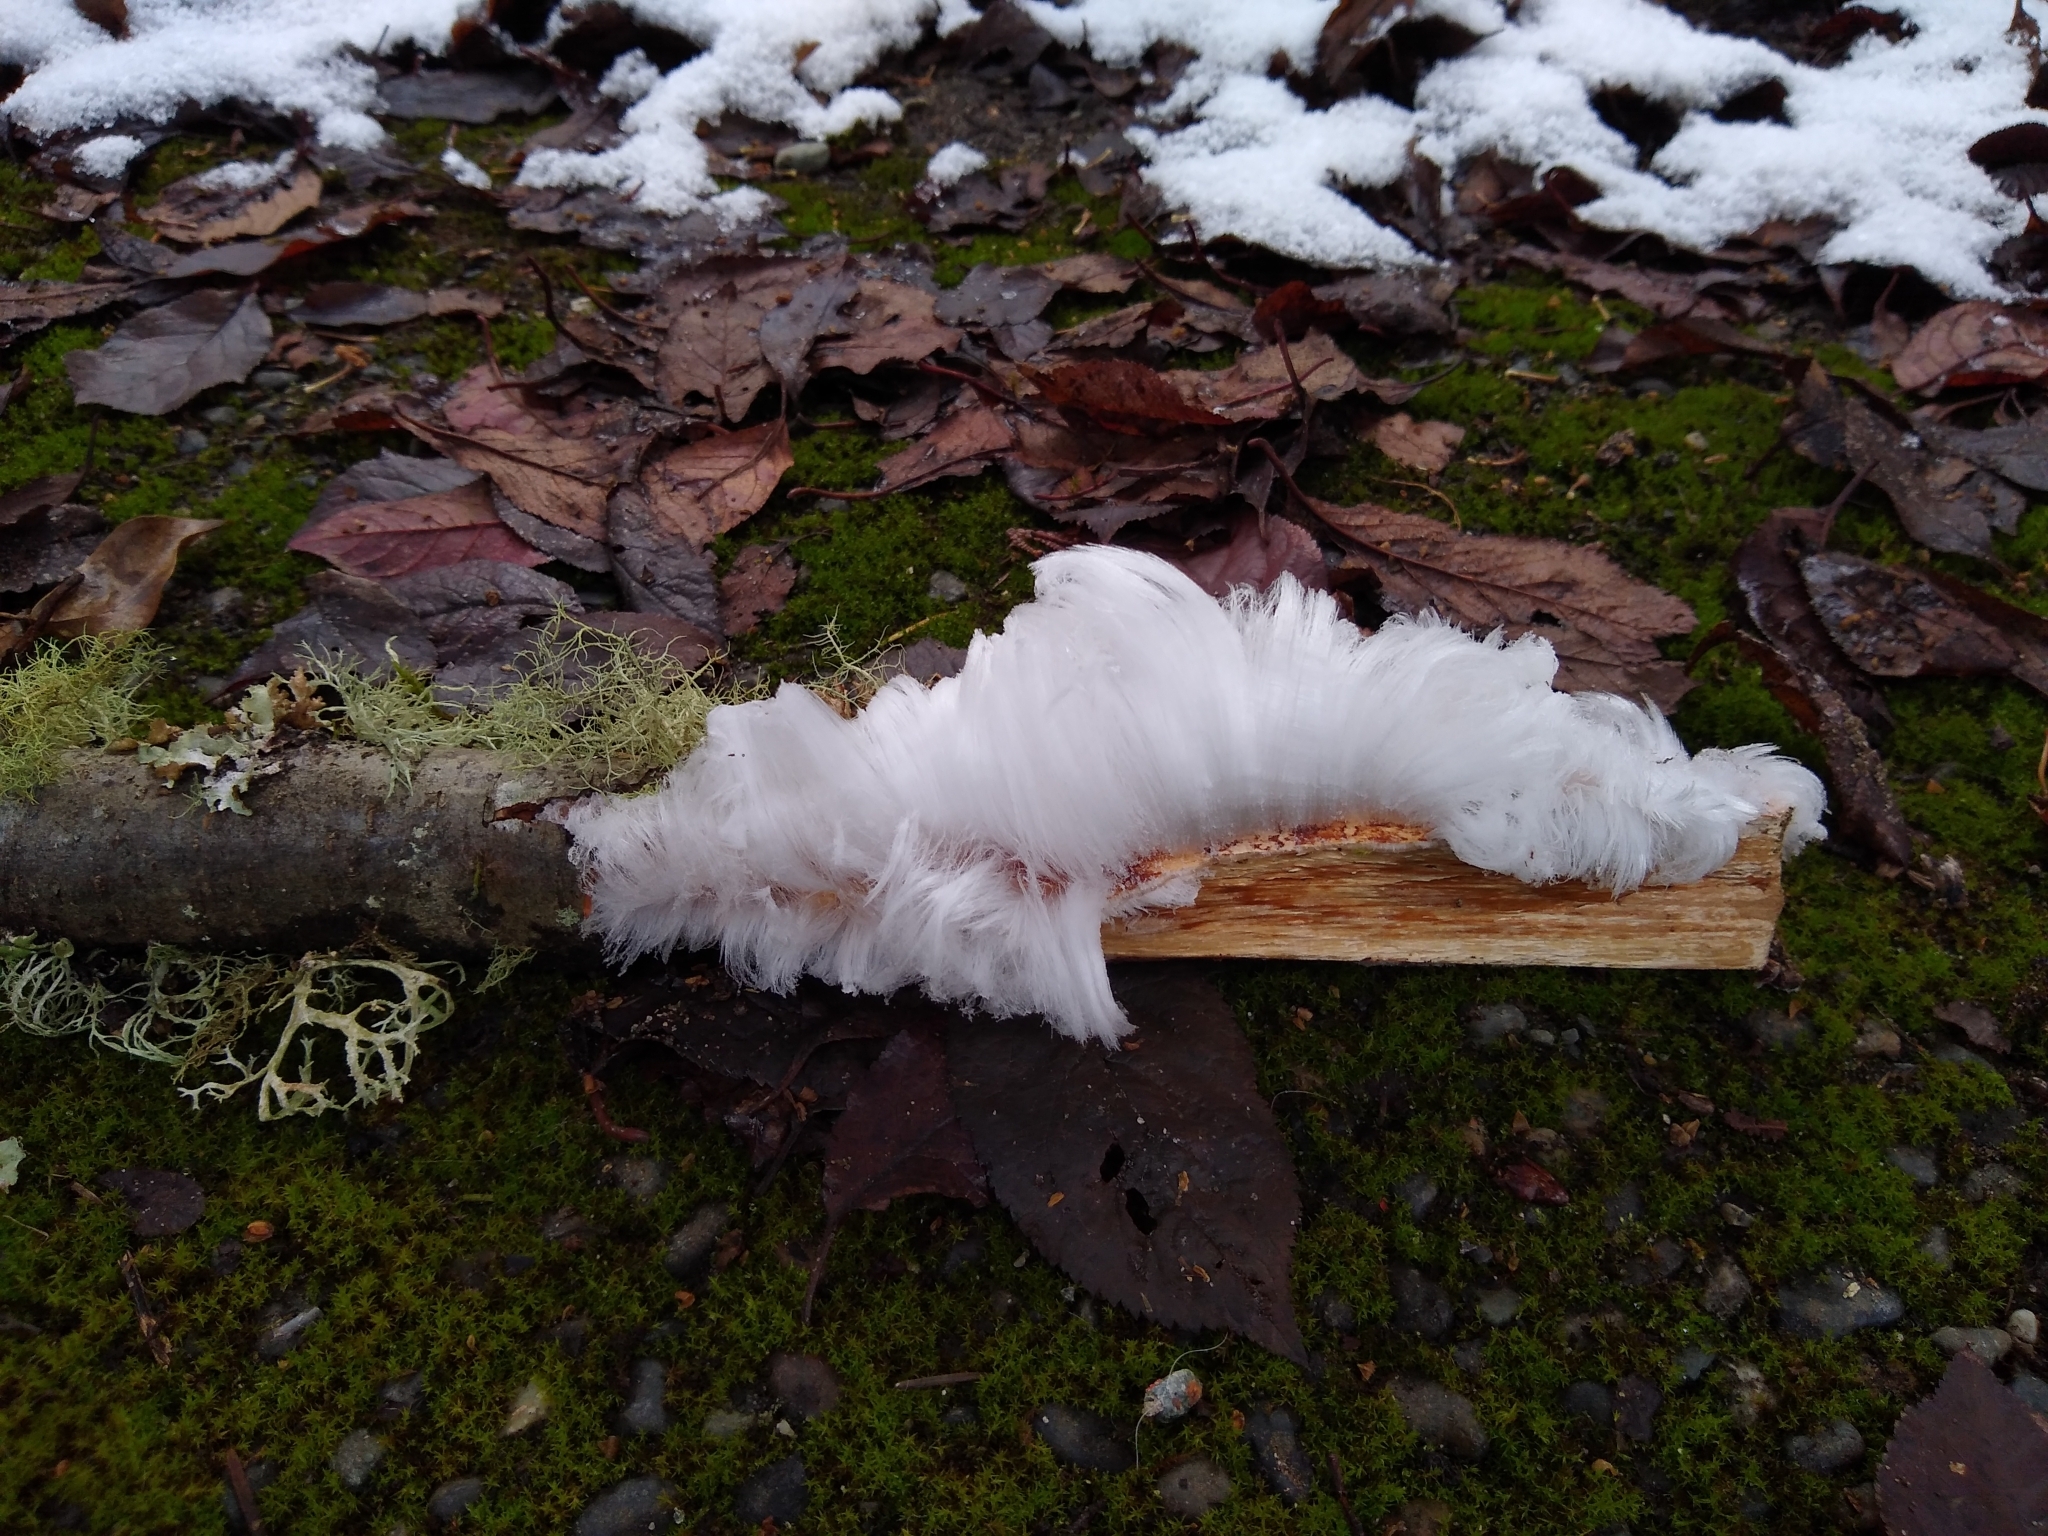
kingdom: Fungi
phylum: Basidiomycota
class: Agaricomycetes
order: Auriculariales
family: Auriculariaceae
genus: Exidiopsis
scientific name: Exidiopsis effusa
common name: Hair ice crust
